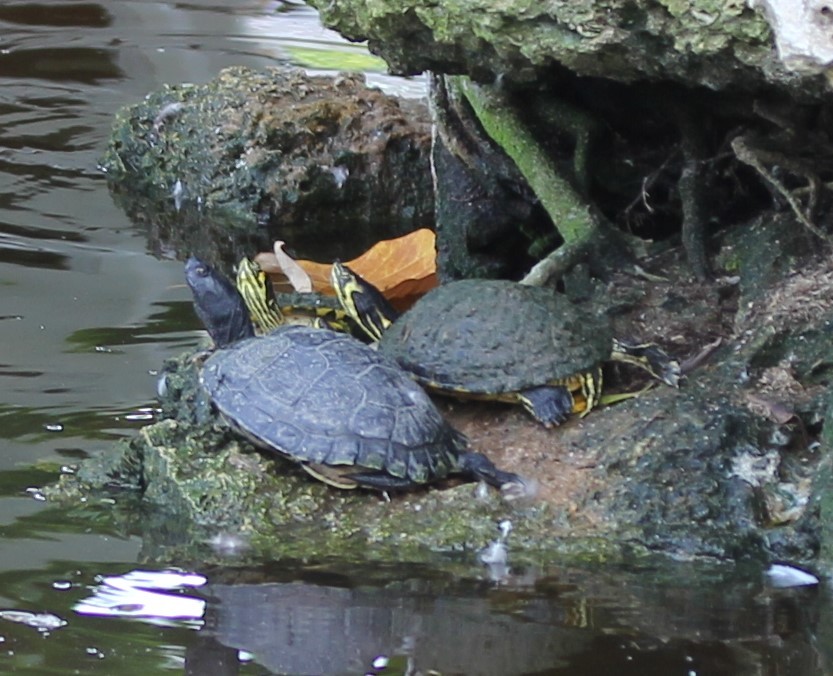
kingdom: Animalia
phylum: Chordata
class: Testudines
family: Emydidae
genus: Trachemys
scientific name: Trachemys scripta
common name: Slider
